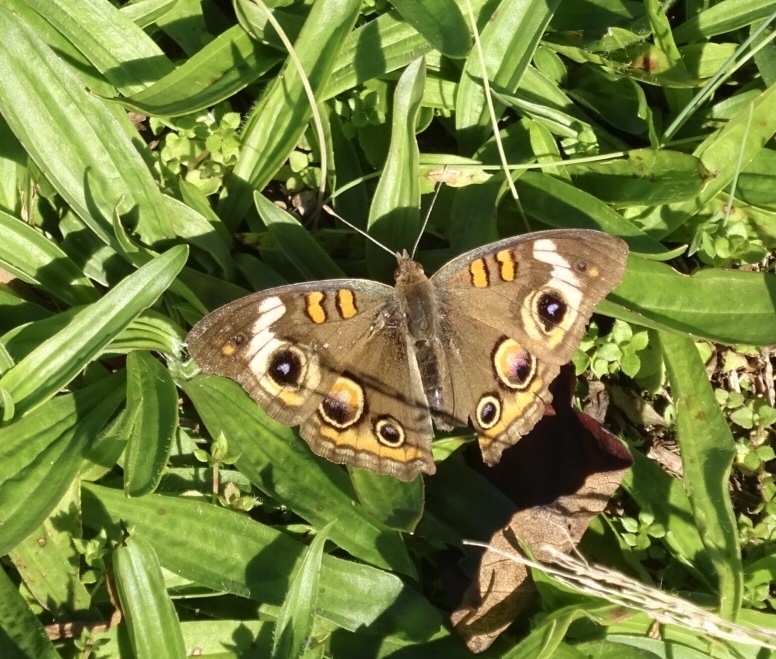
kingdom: Animalia
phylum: Arthropoda
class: Insecta
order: Lepidoptera
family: Nymphalidae
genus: Junonia
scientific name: Junonia coenia
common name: Common buckeye
